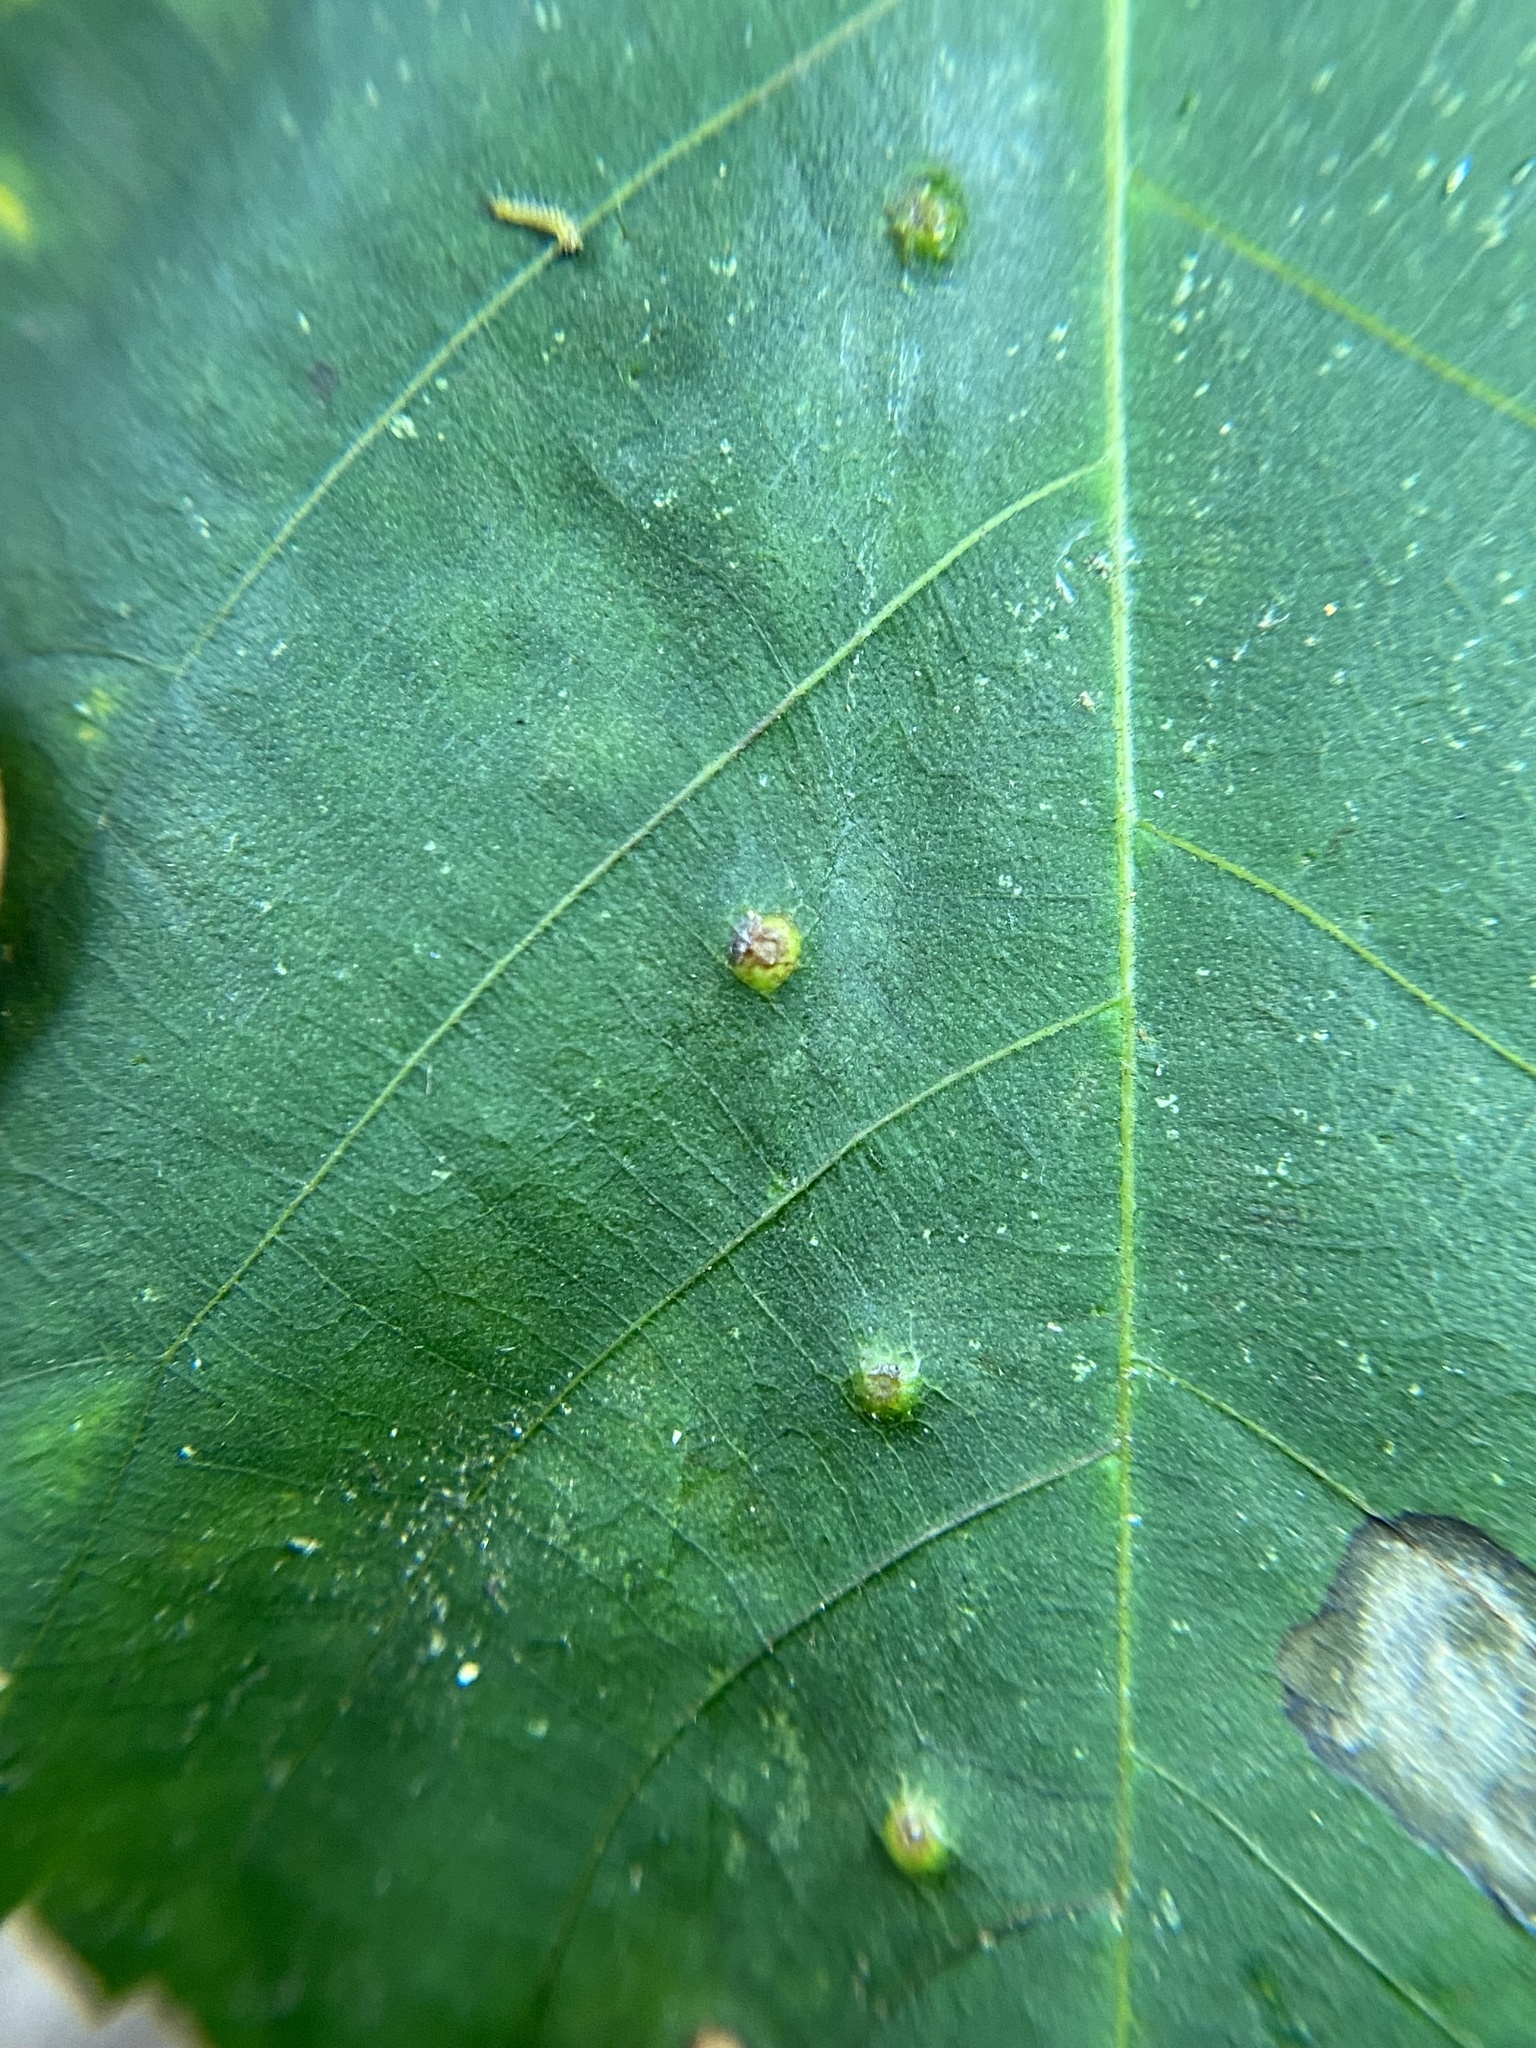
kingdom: Animalia
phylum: Arthropoda
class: Insecta
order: Diptera
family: Cecidomyiidae
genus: Caryomyia
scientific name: Caryomyia hirtidolium
